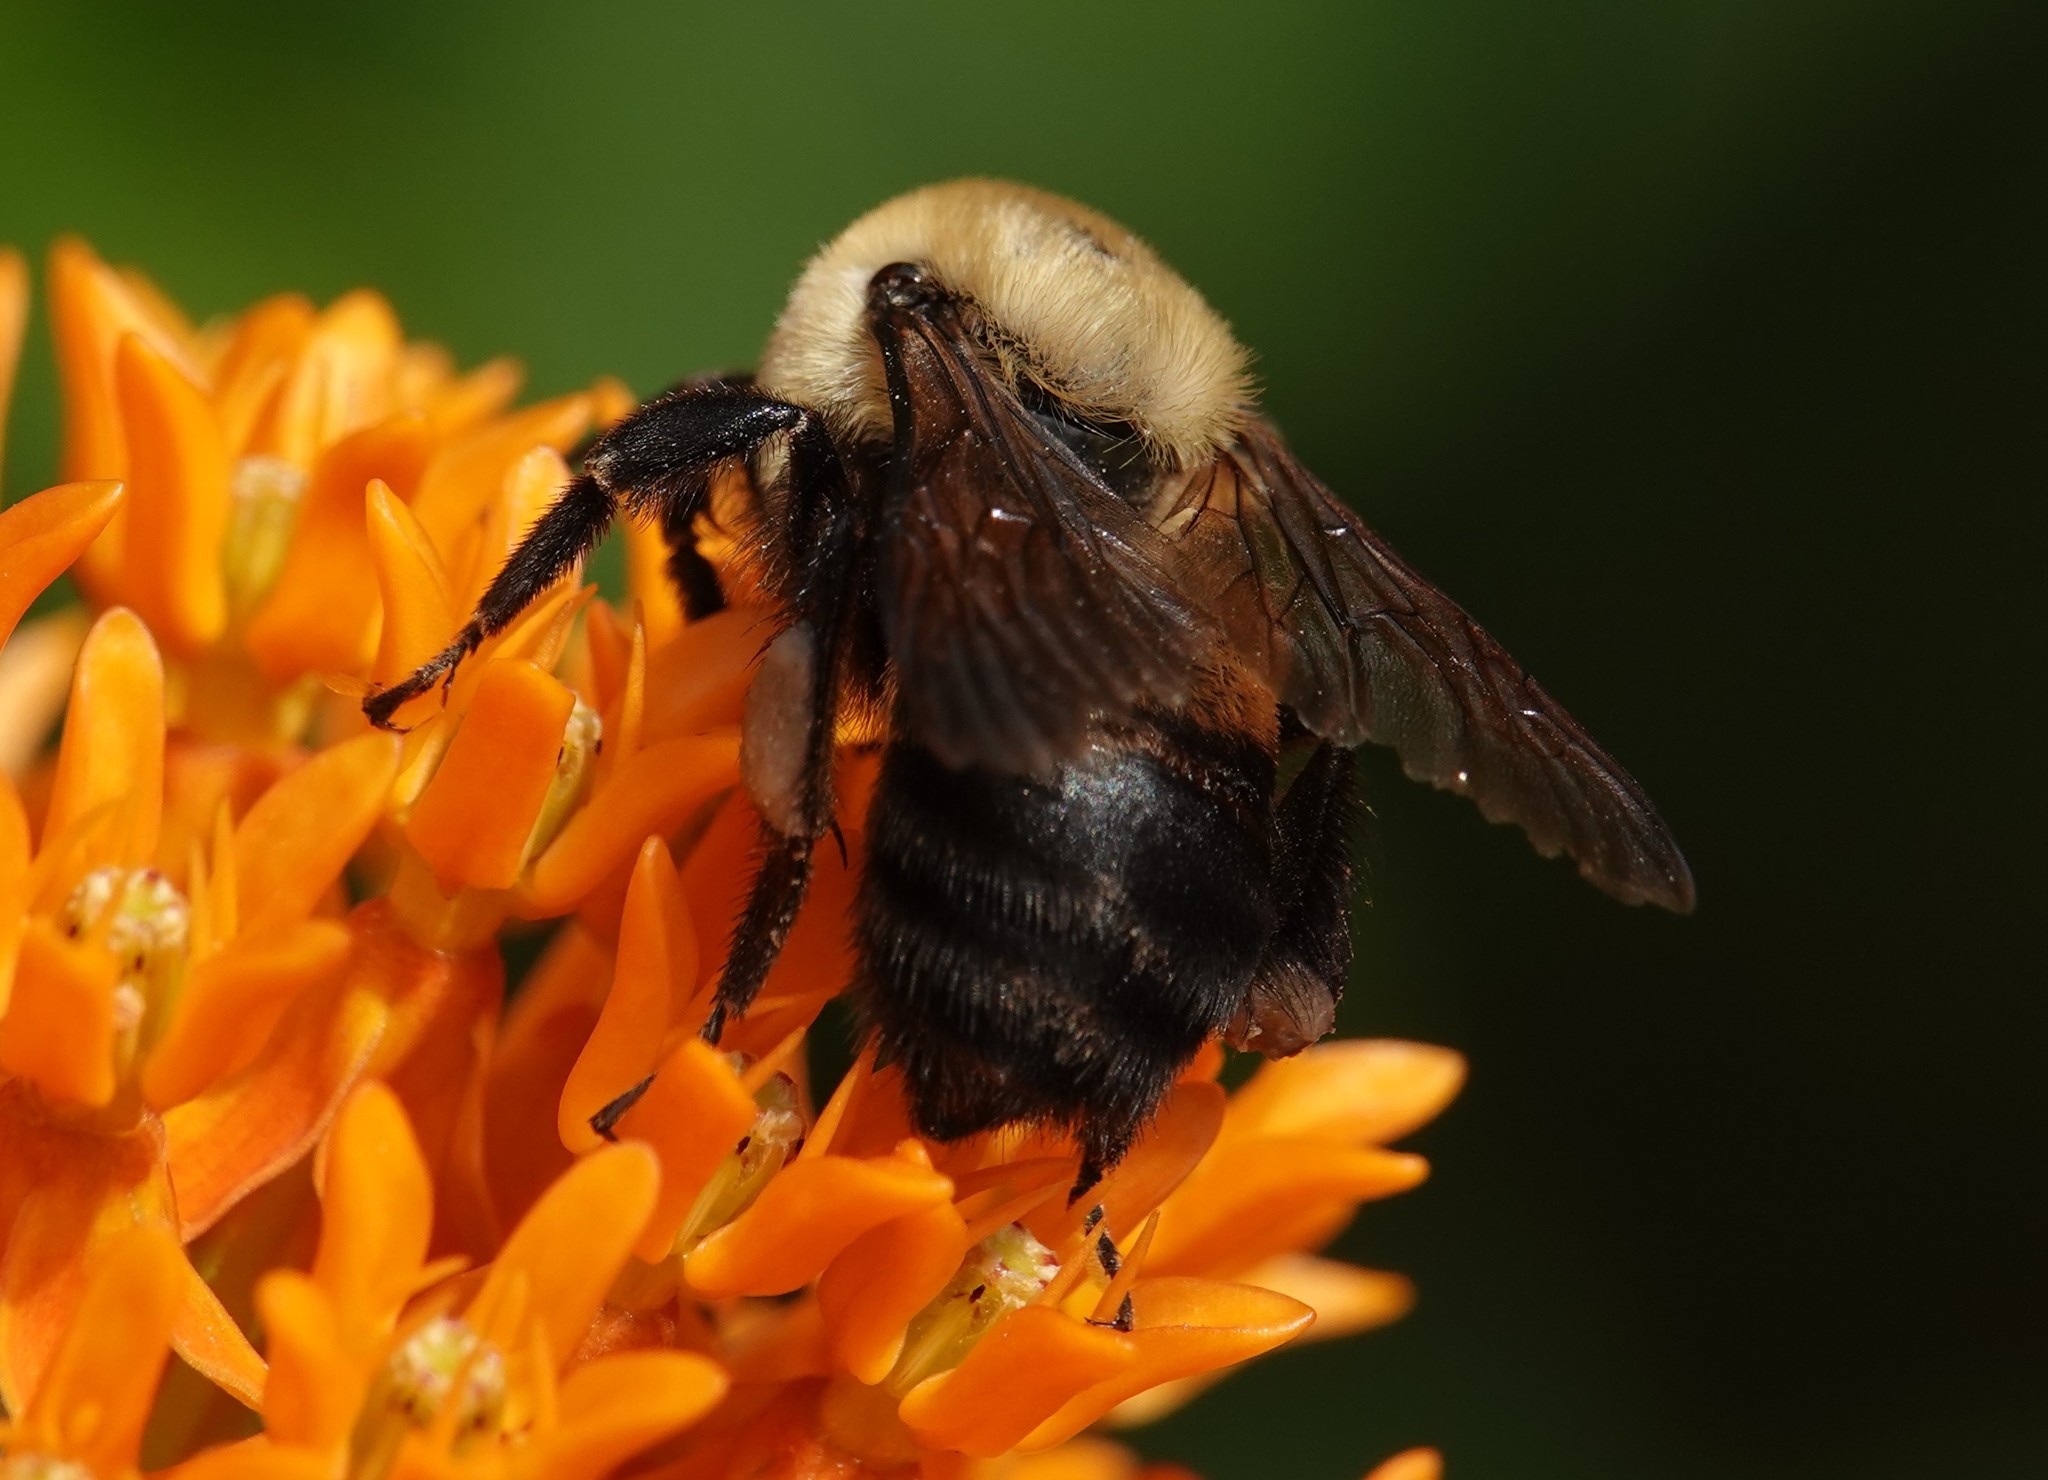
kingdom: Animalia
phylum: Arthropoda
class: Insecta
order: Hymenoptera
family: Apidae
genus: Bombus
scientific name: Bombus griseocollis
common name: Brown-belted bumble bee
